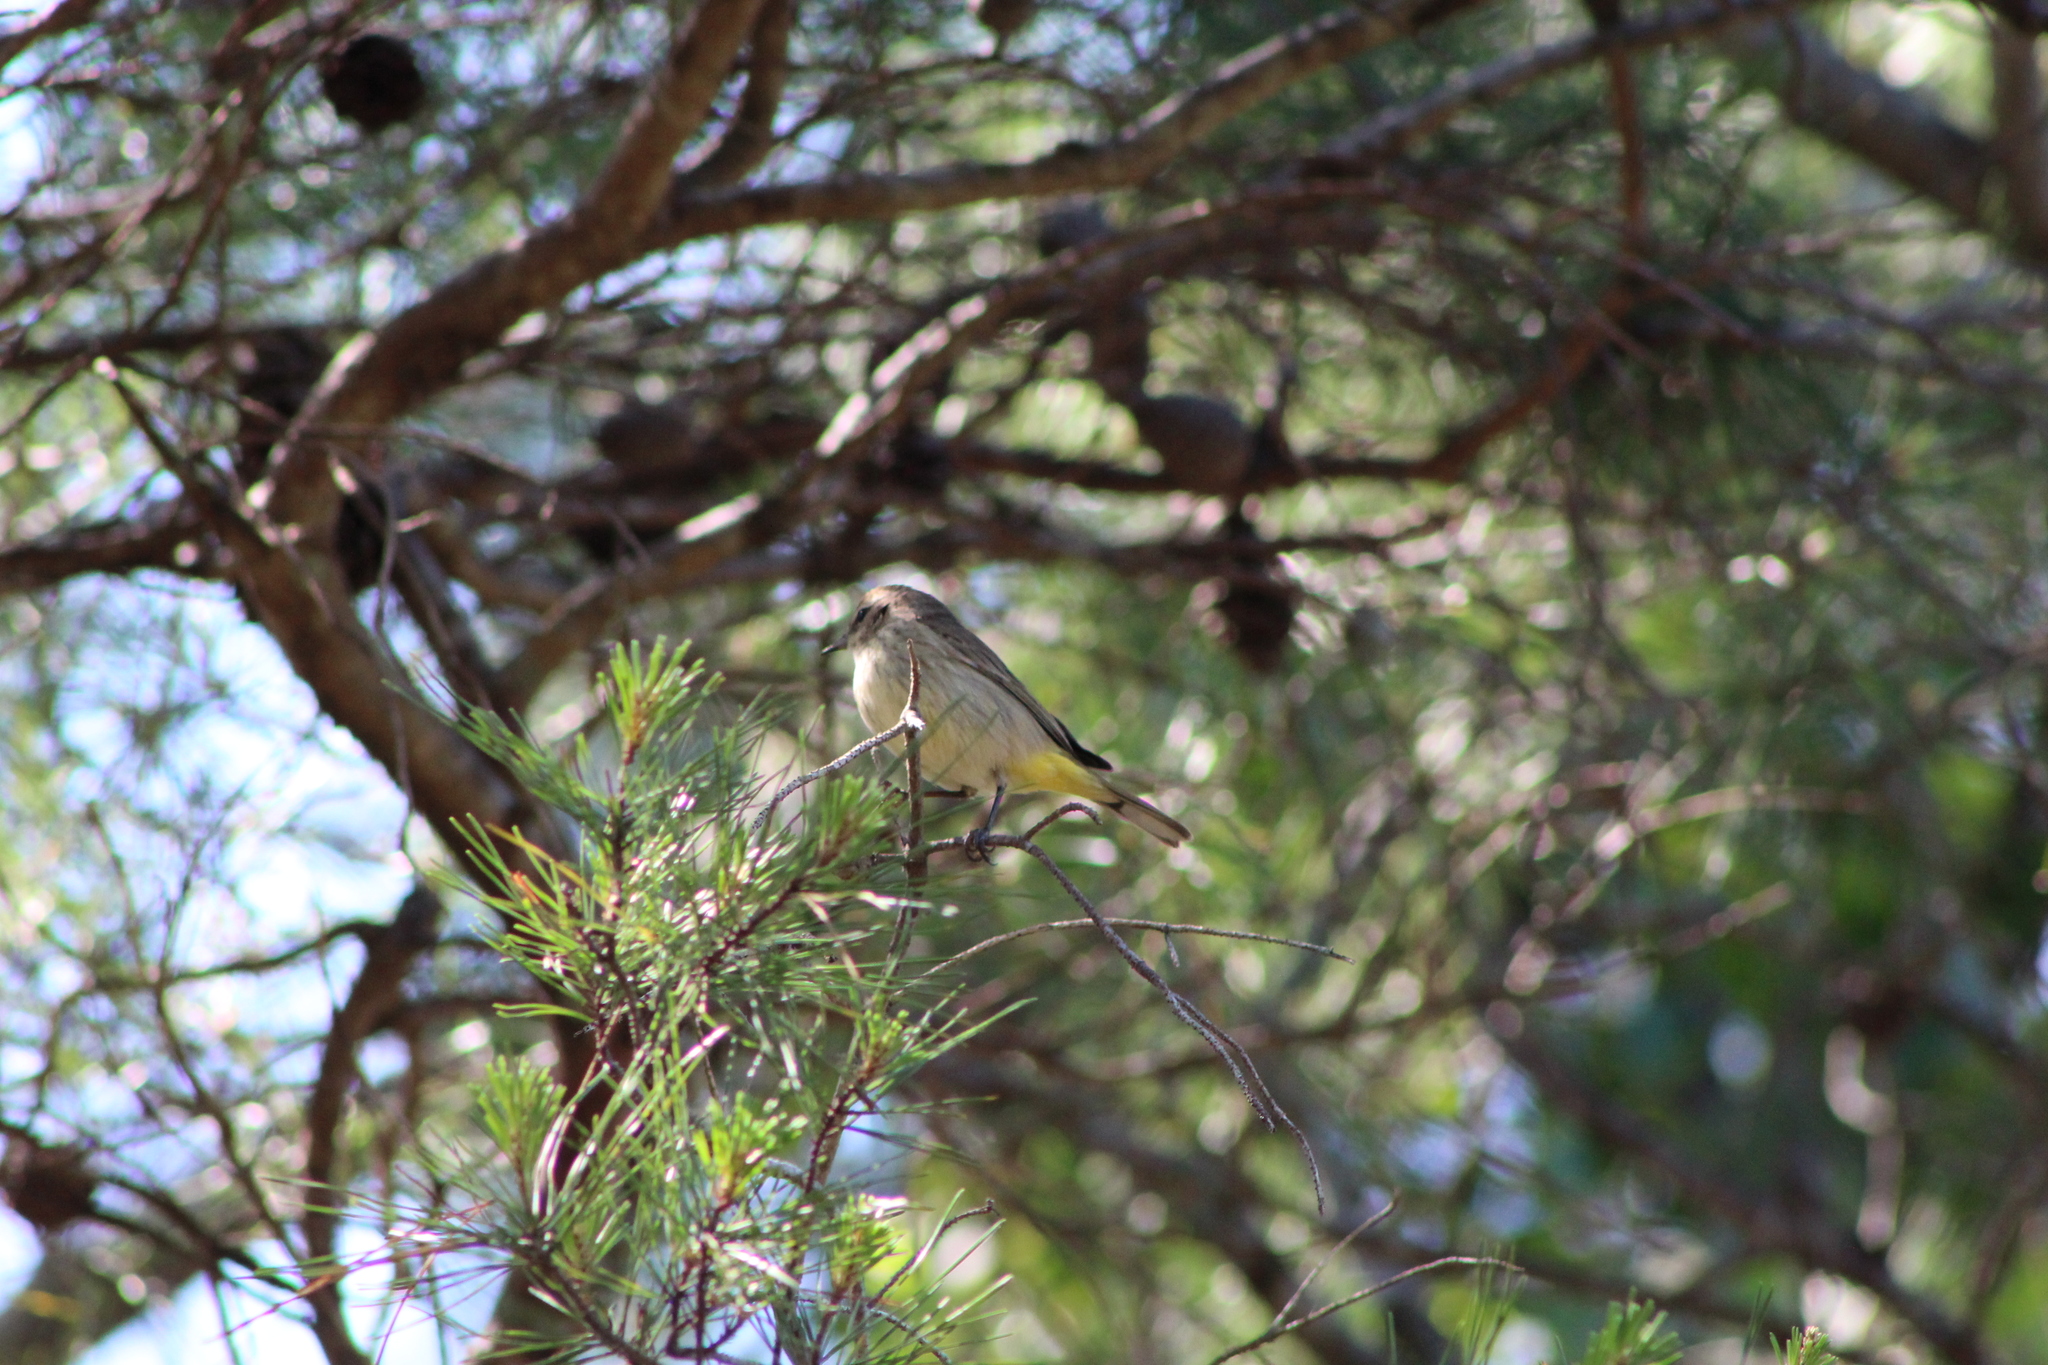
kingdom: Animalia
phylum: Chordata
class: Aves
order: Passeriformes
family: Parulidae
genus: Setophaga
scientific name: Setophaga palmarum
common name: Palm warbler
